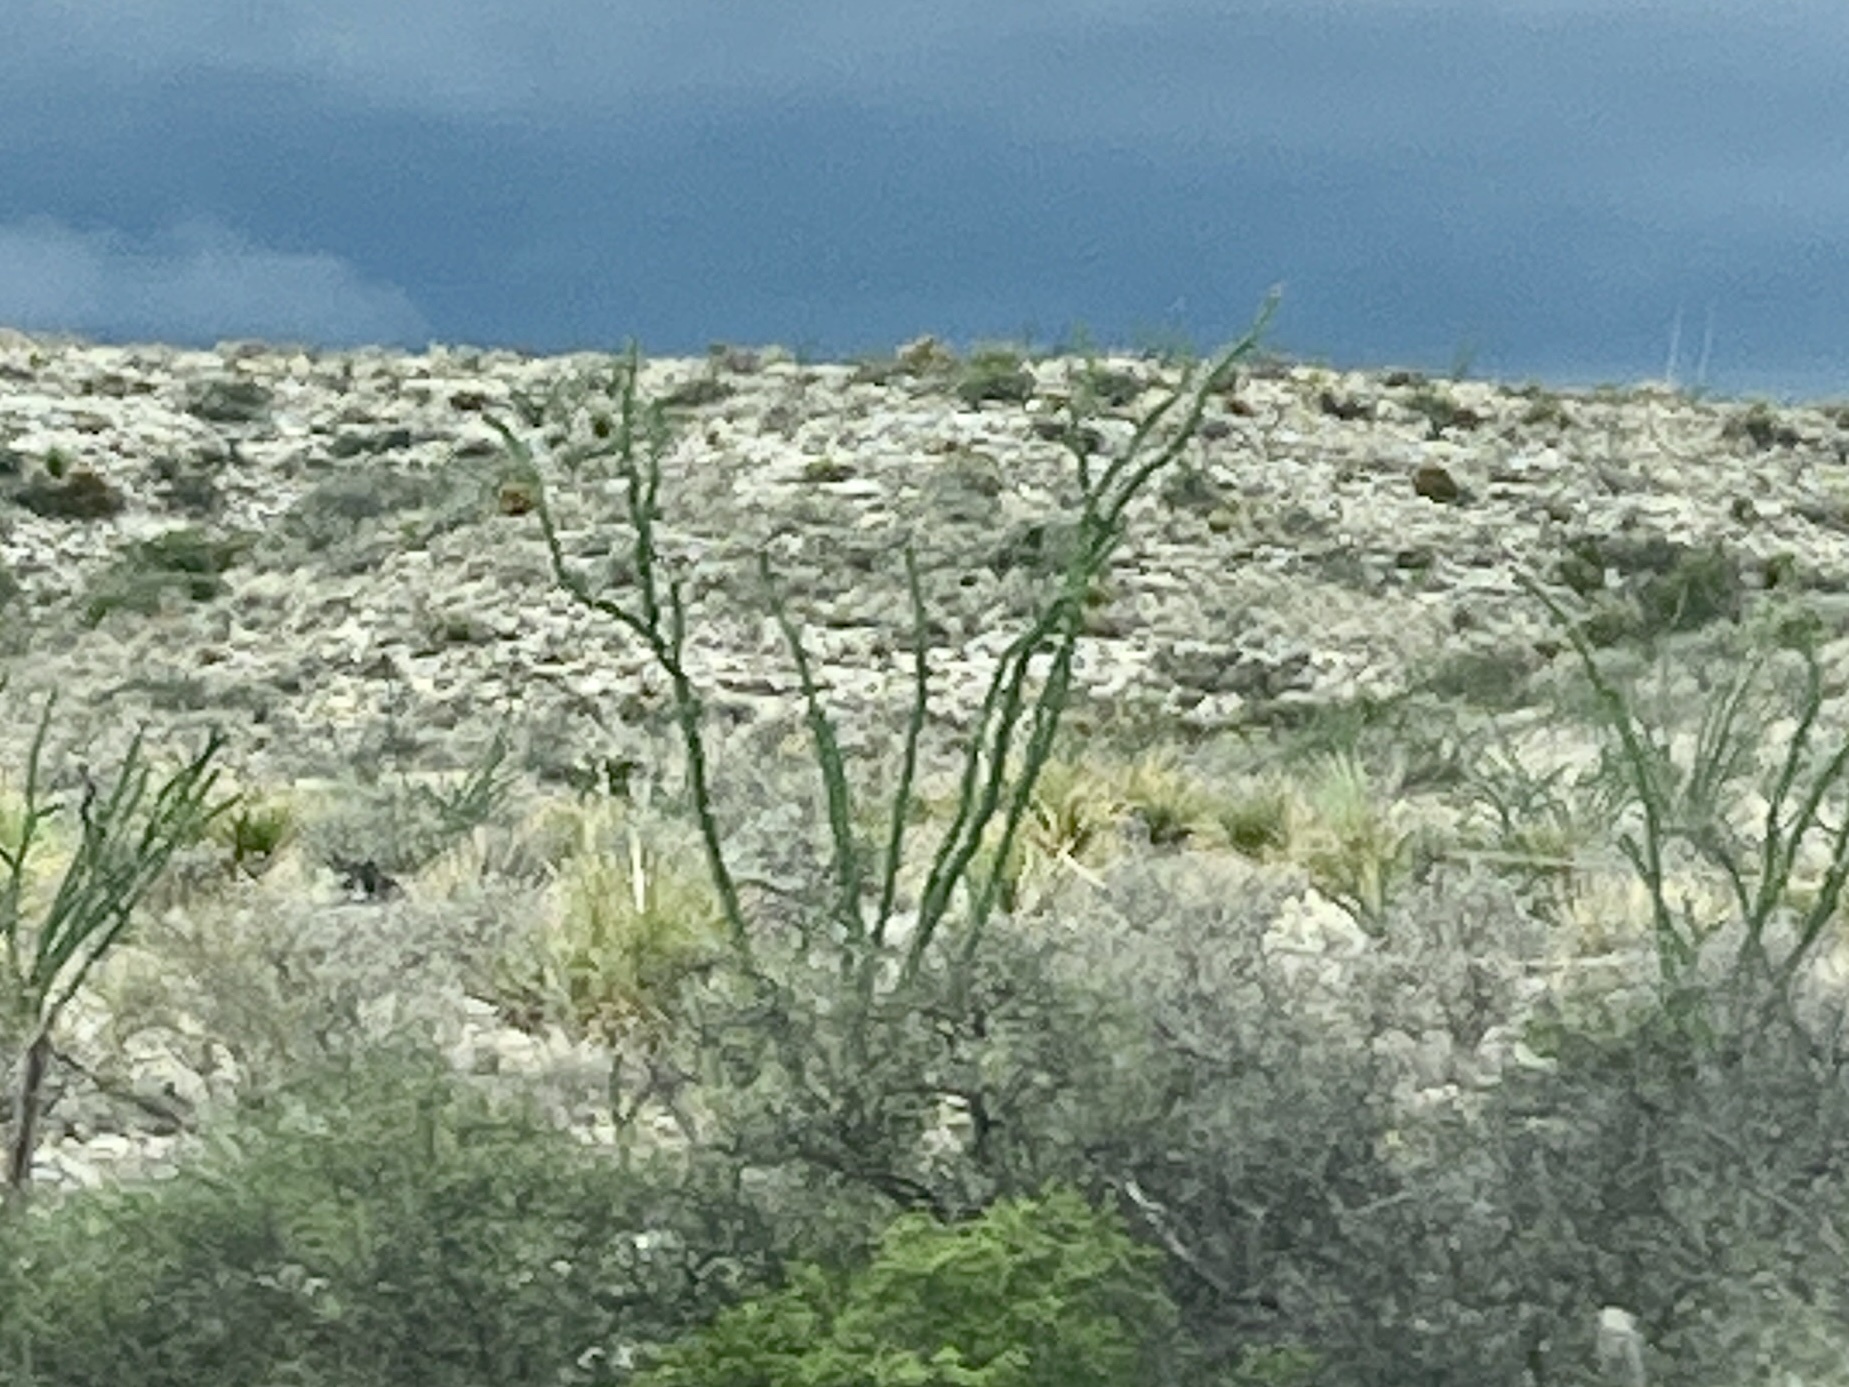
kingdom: Plantae
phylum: Tracheophyta
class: Magnoliopsida
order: Ericales
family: Fouquieriaceae
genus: Fouquieria
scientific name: Fouquieria splendens
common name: Vine-cactus
